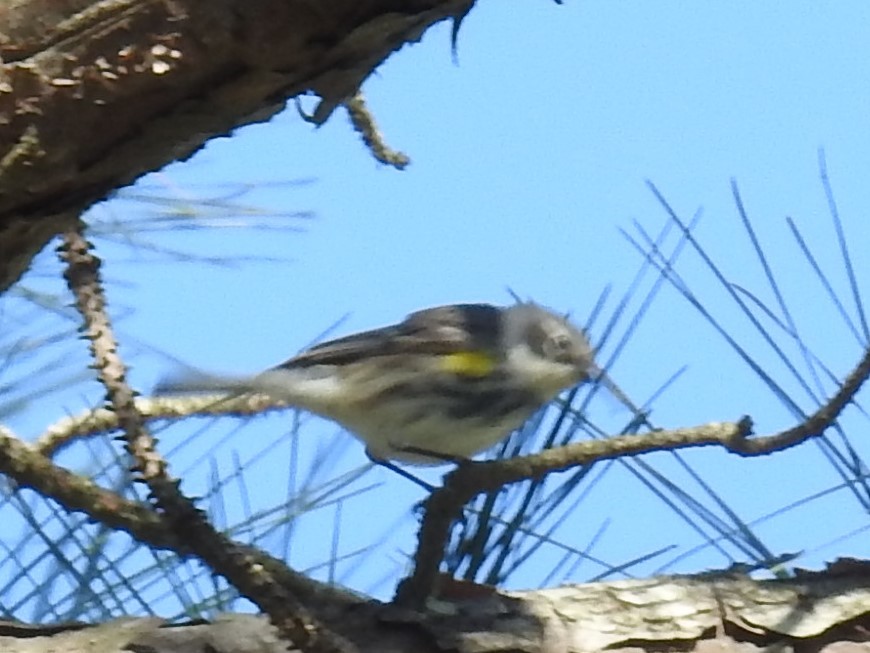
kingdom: Animalia
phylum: Chordata
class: Aves
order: Passeriformes
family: Parulidae
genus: Setophaga
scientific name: Setophaga coronata
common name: Myrtle warbler
